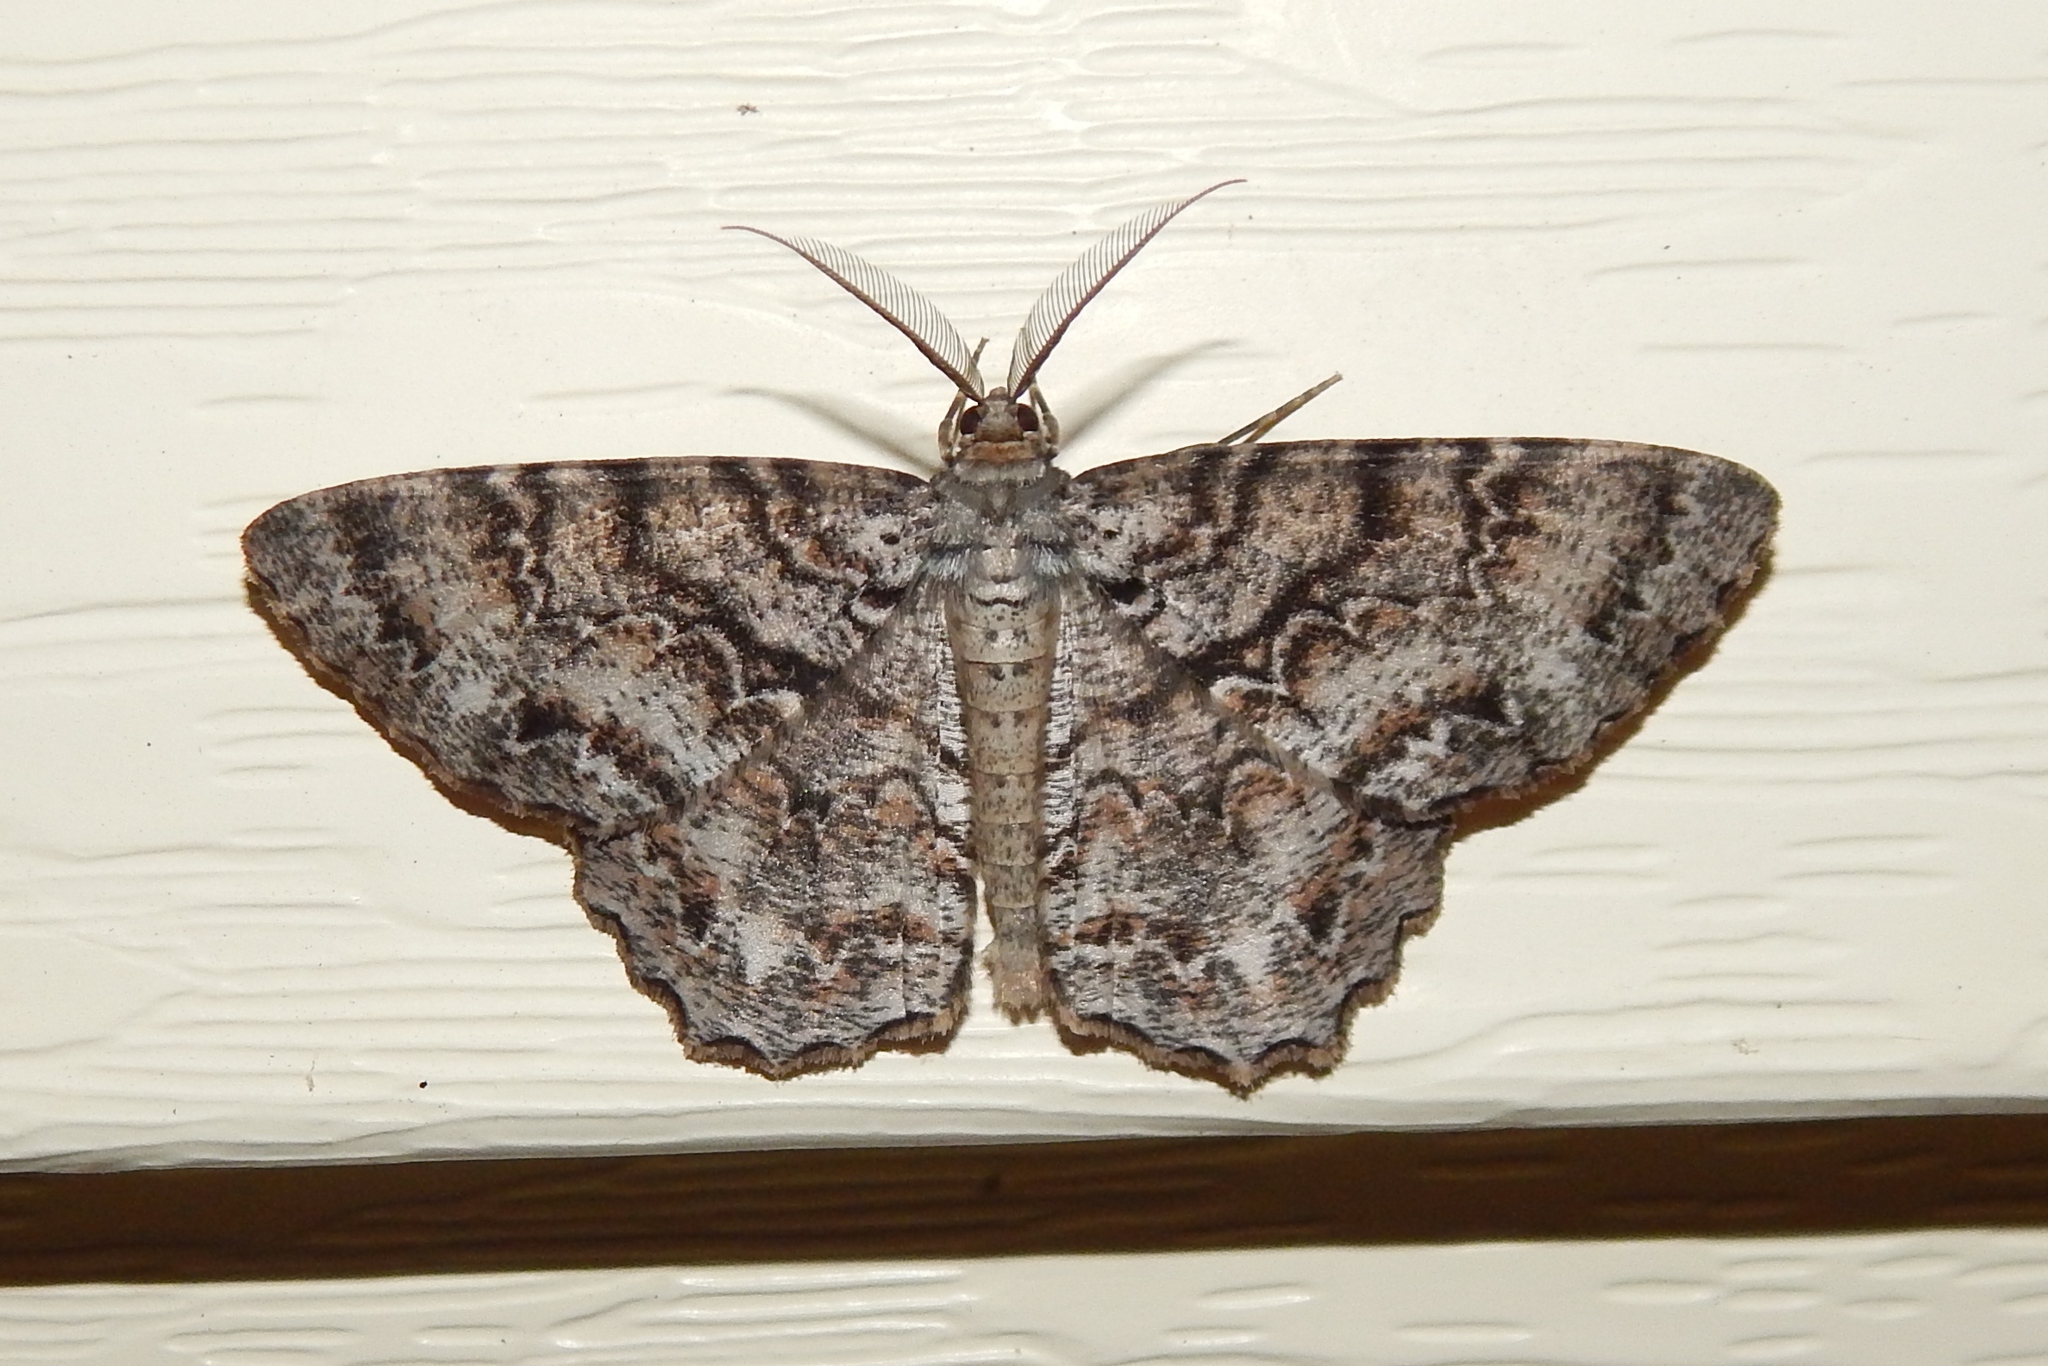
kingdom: Animalia
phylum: Arthropoda
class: Insecta
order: Lepidoptera
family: Geometridae
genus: Epimecis
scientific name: Epimecis hortaria
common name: Tulip-tree beauty
